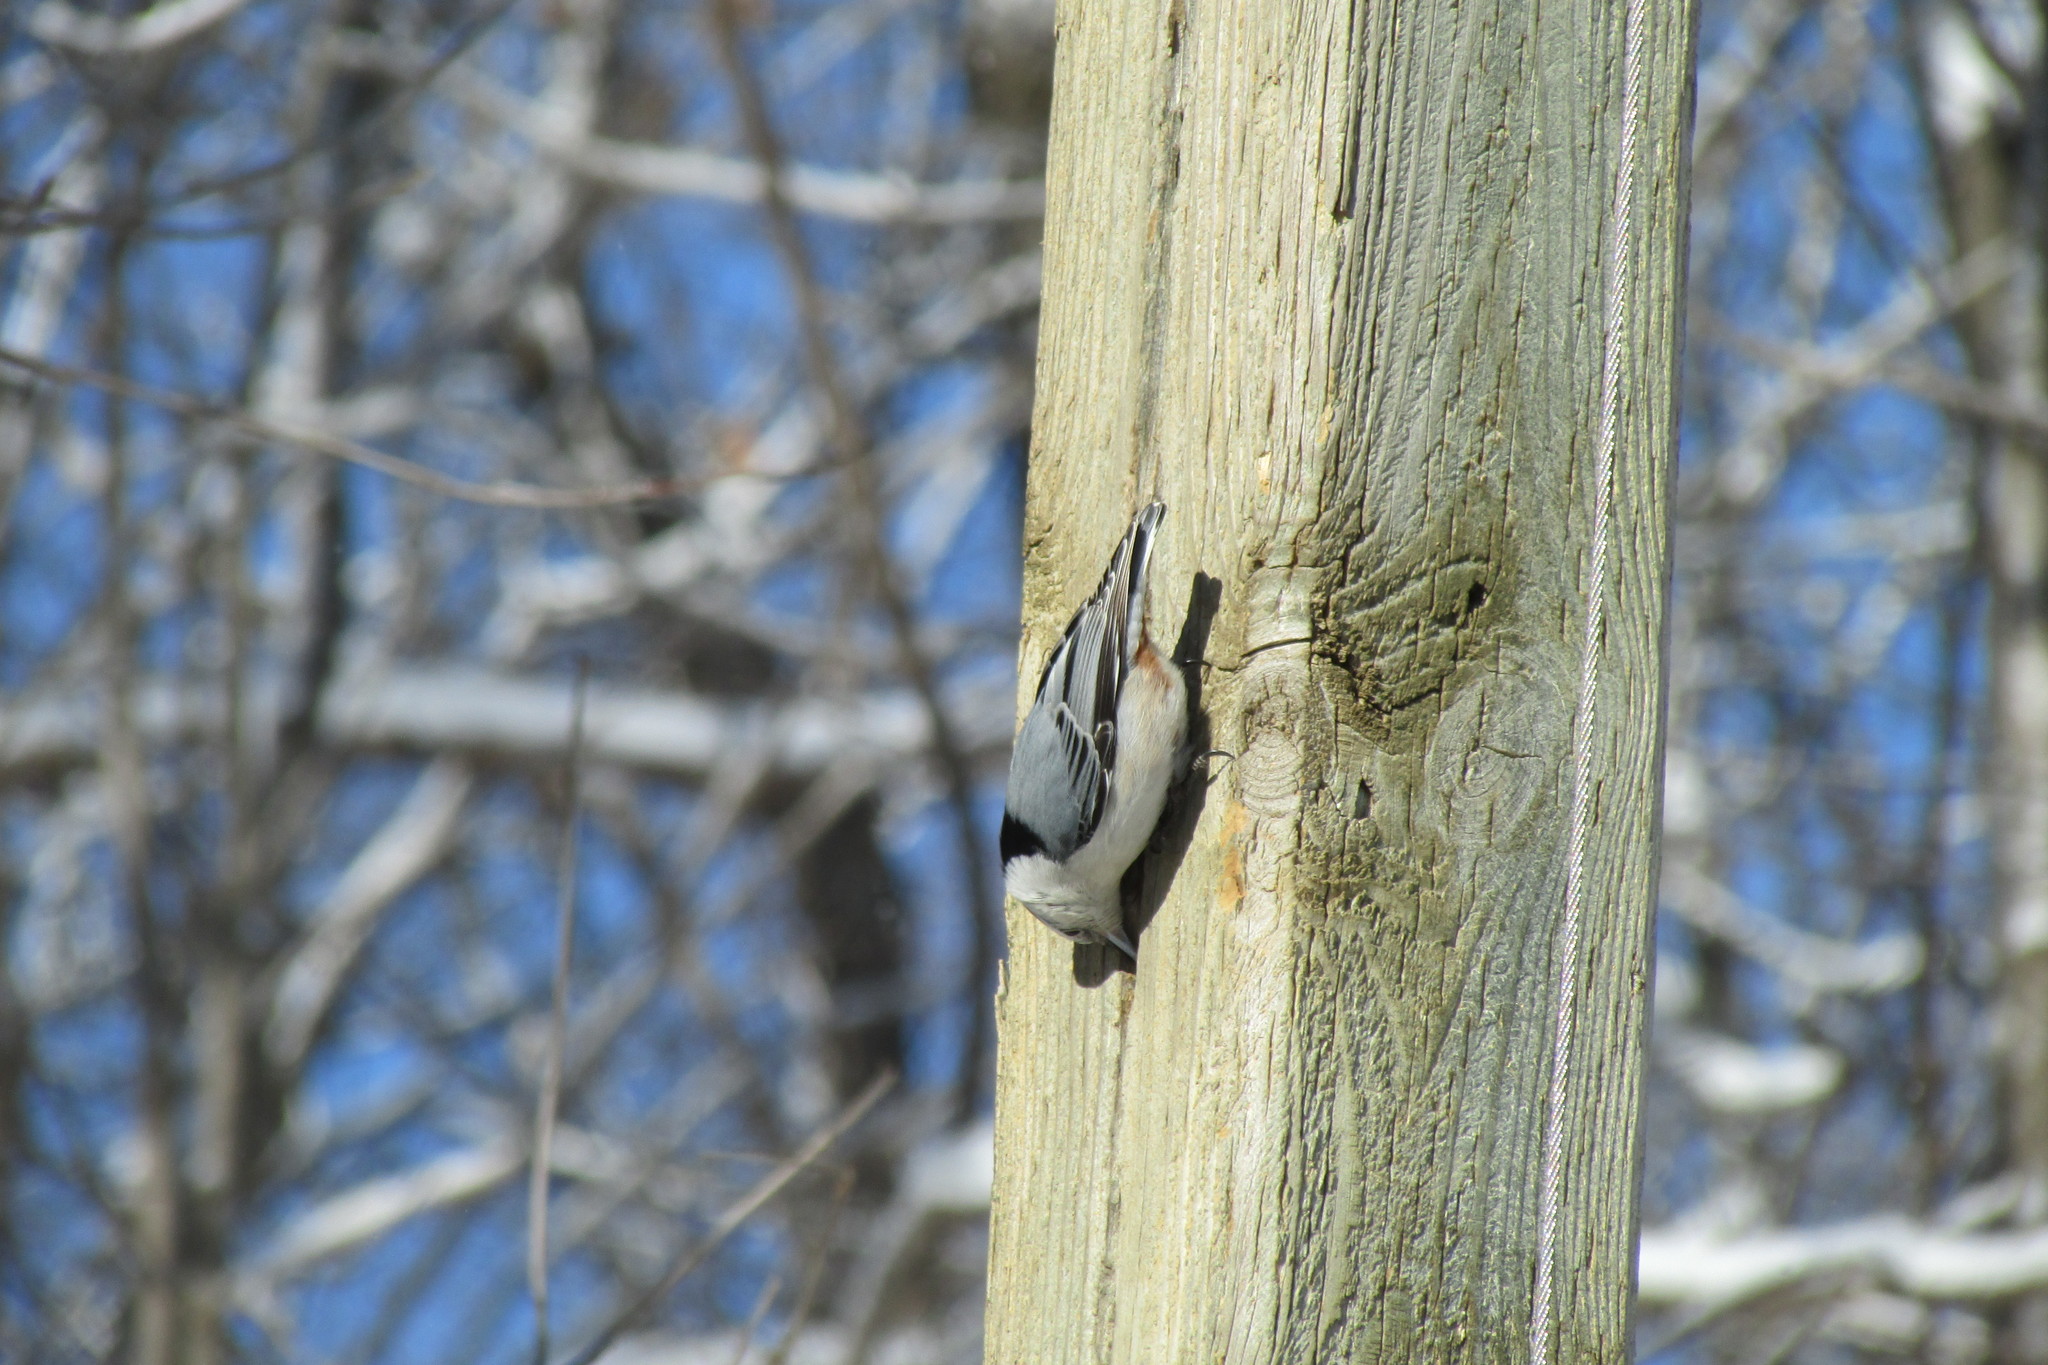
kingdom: Animalia
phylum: Chordata
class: Aves
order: Passeriformes
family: Sittidae
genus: Sitta
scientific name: Sitta carolinensis
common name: White-breasted nuthatch
